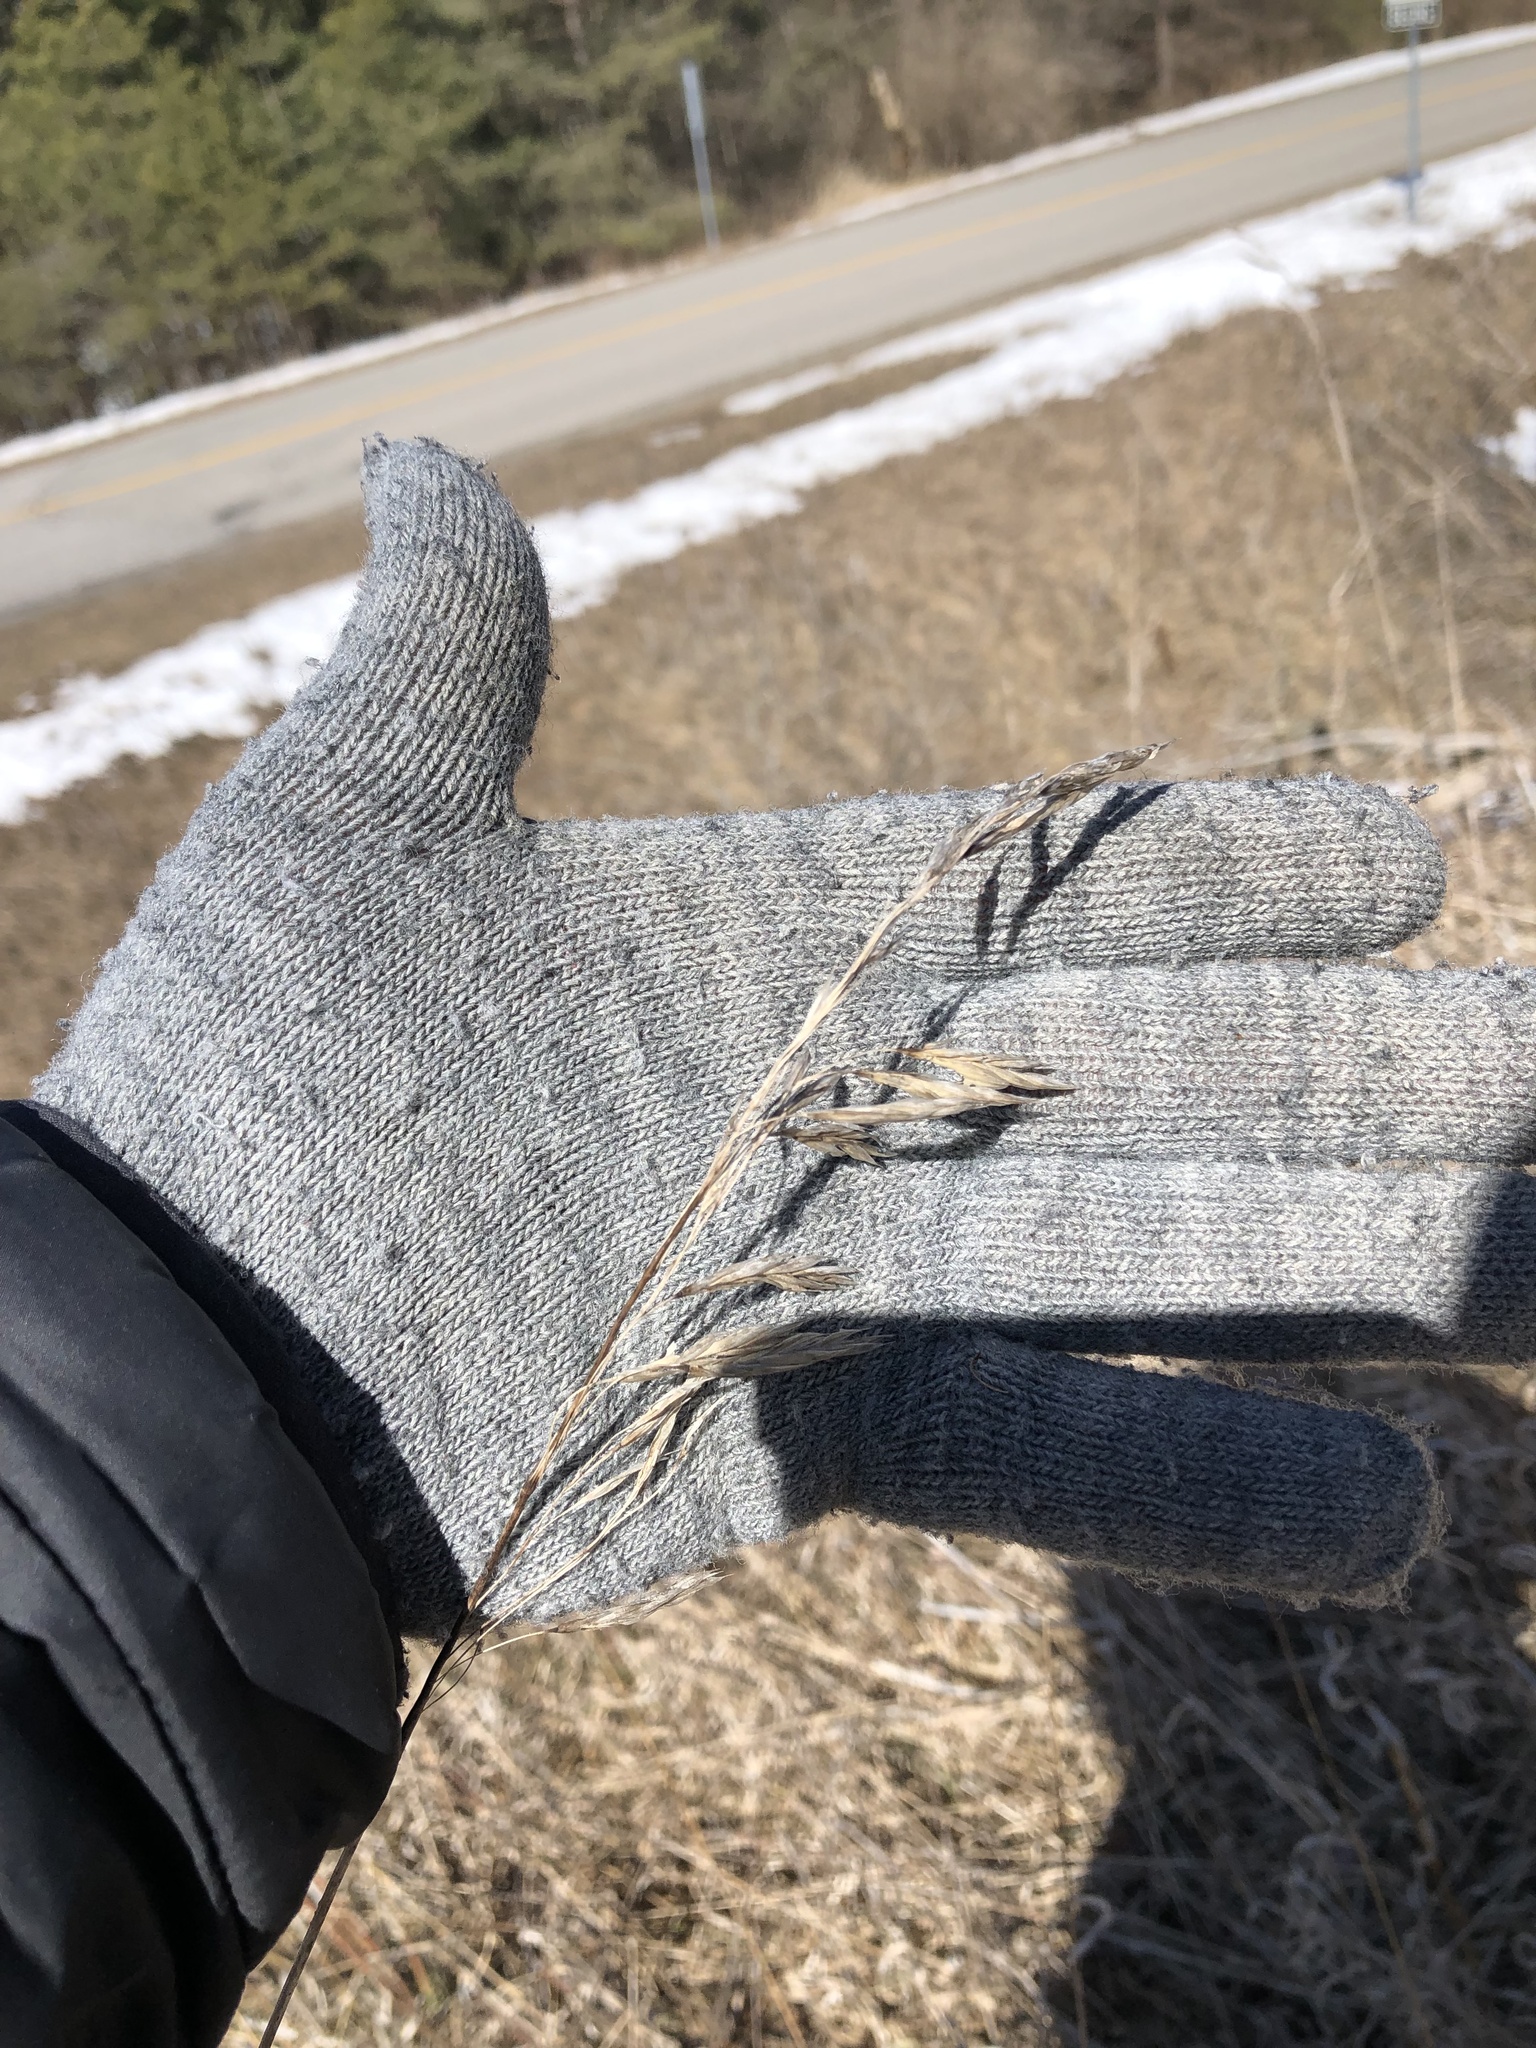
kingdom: Plantae
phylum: Tracheophyta
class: Liliopsida
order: Poales
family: Poaceae
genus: Bromus
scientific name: Bromus inermis
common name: Smooth brome
